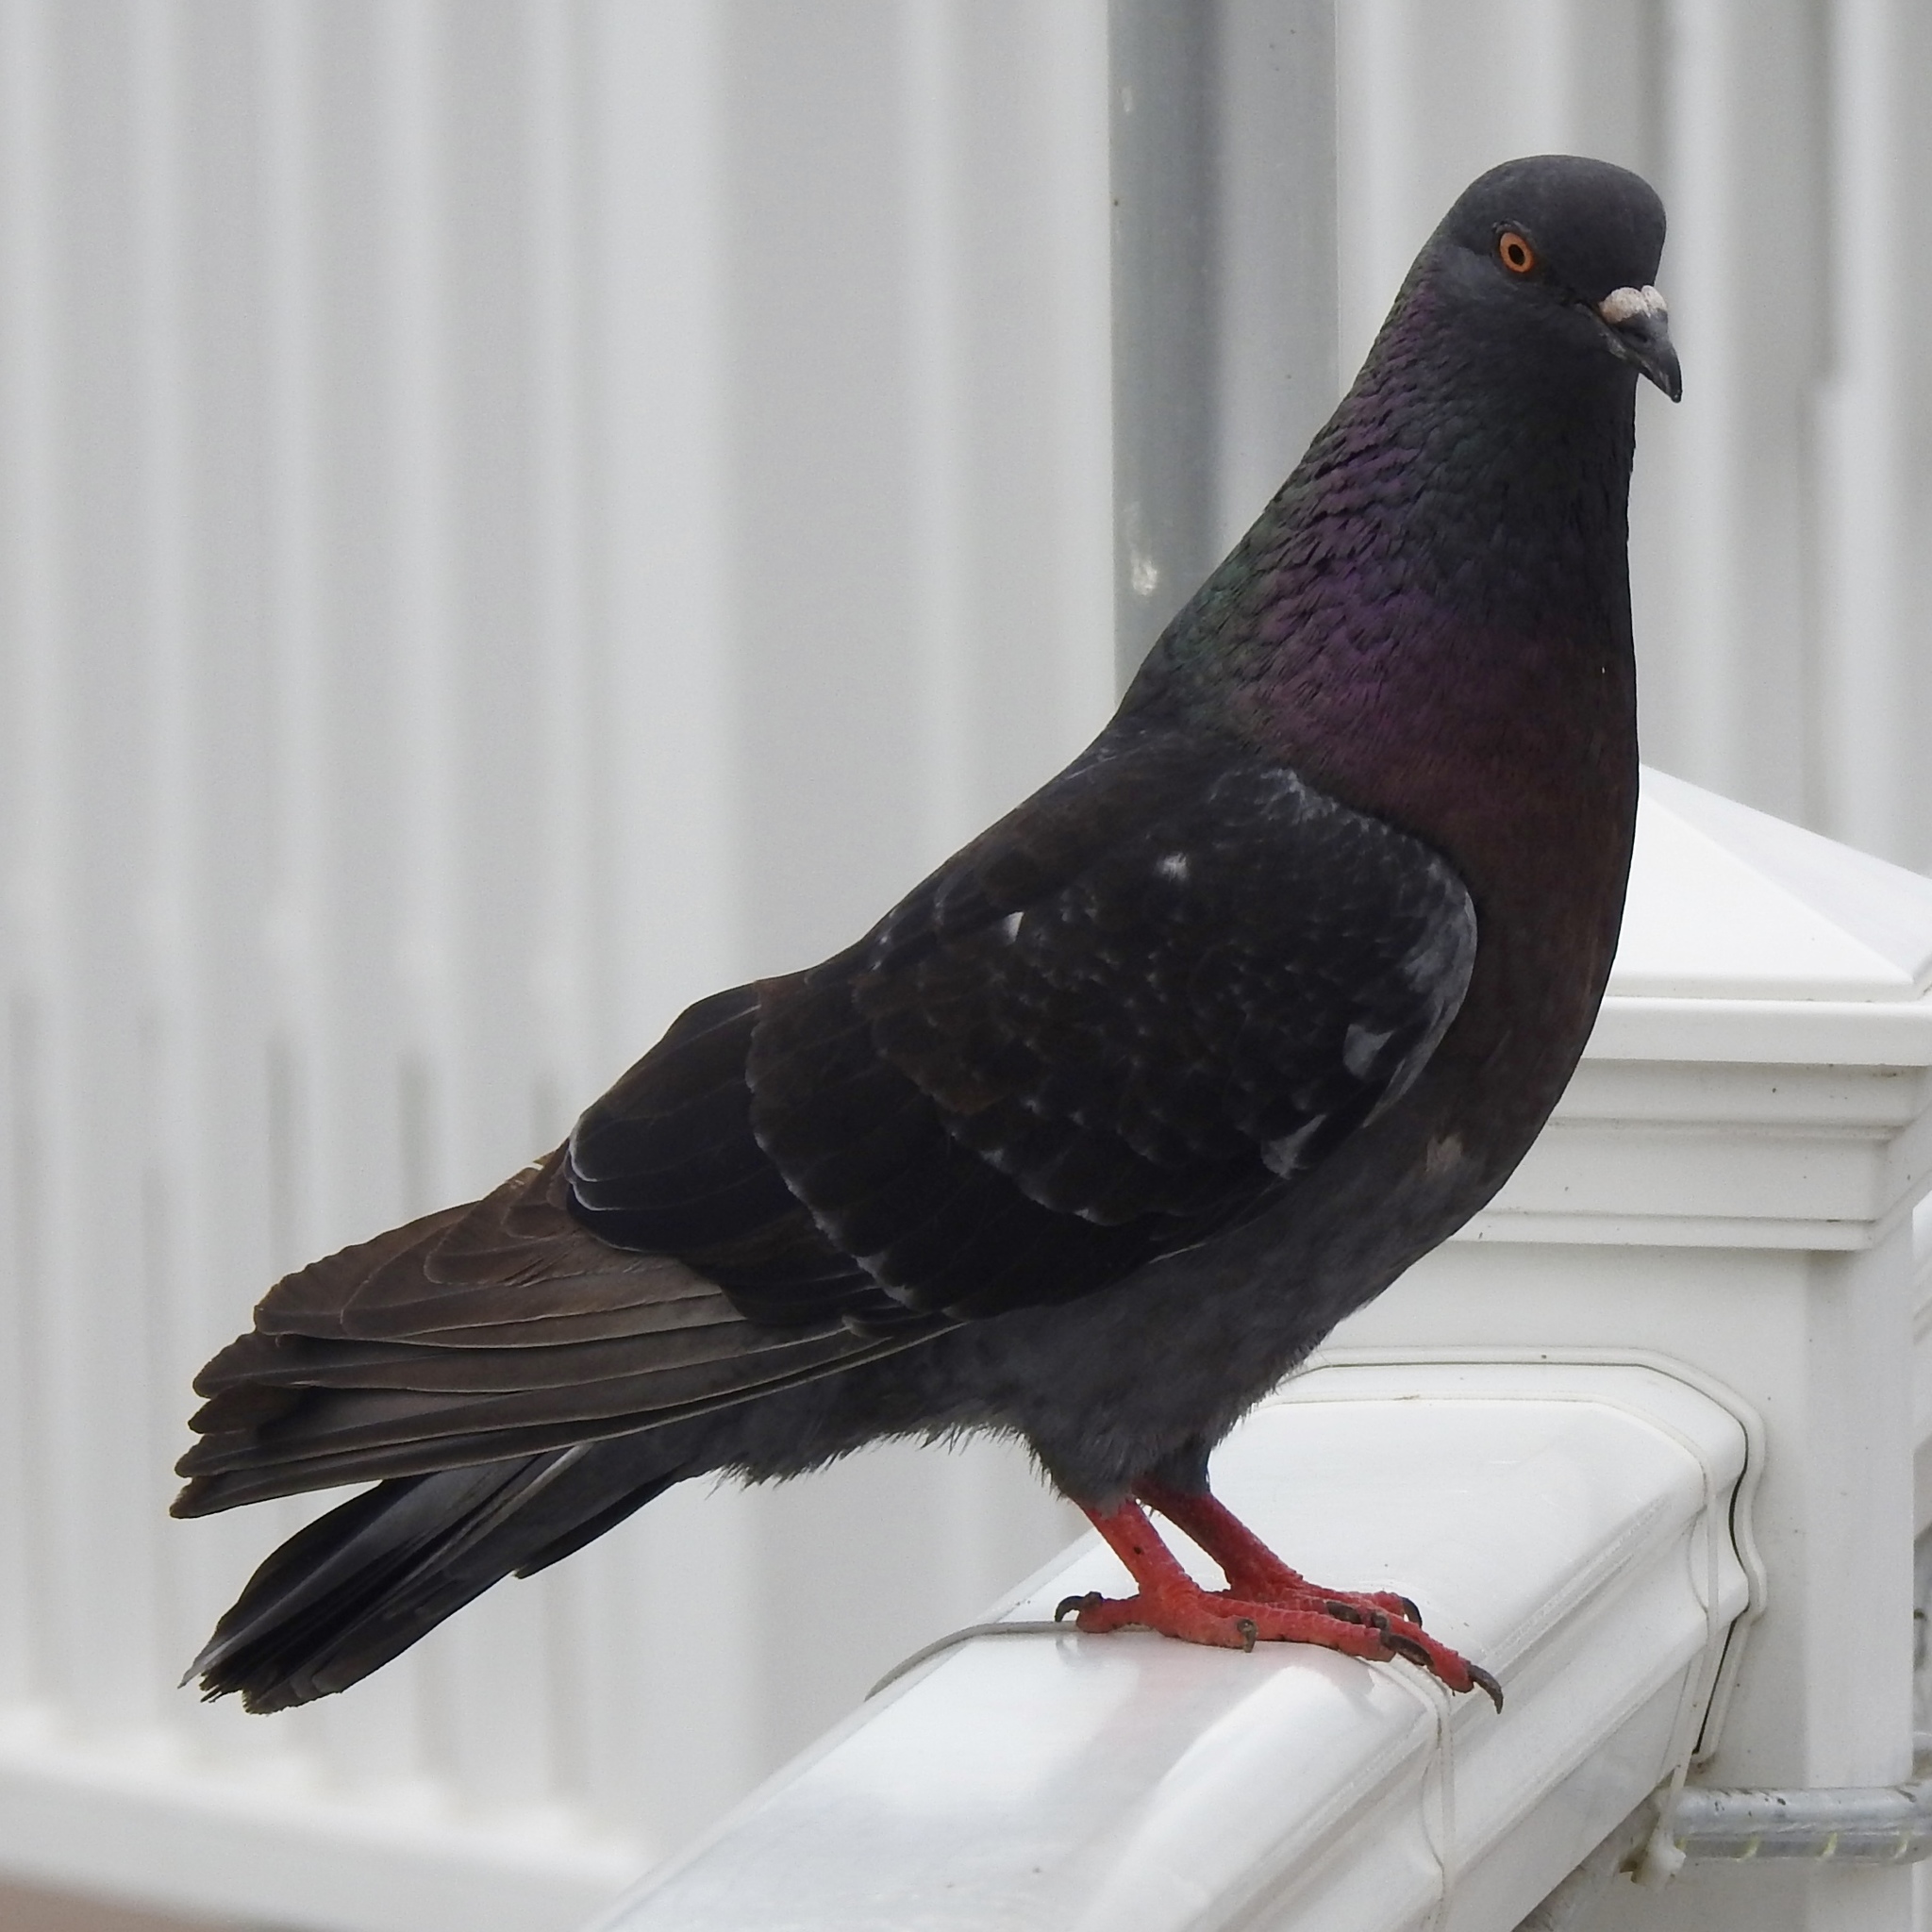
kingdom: Animalia
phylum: Chordata
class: Aves
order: Columbiformes
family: Columbidae
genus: Columba
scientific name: Columba livia
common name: Rock pigeon
